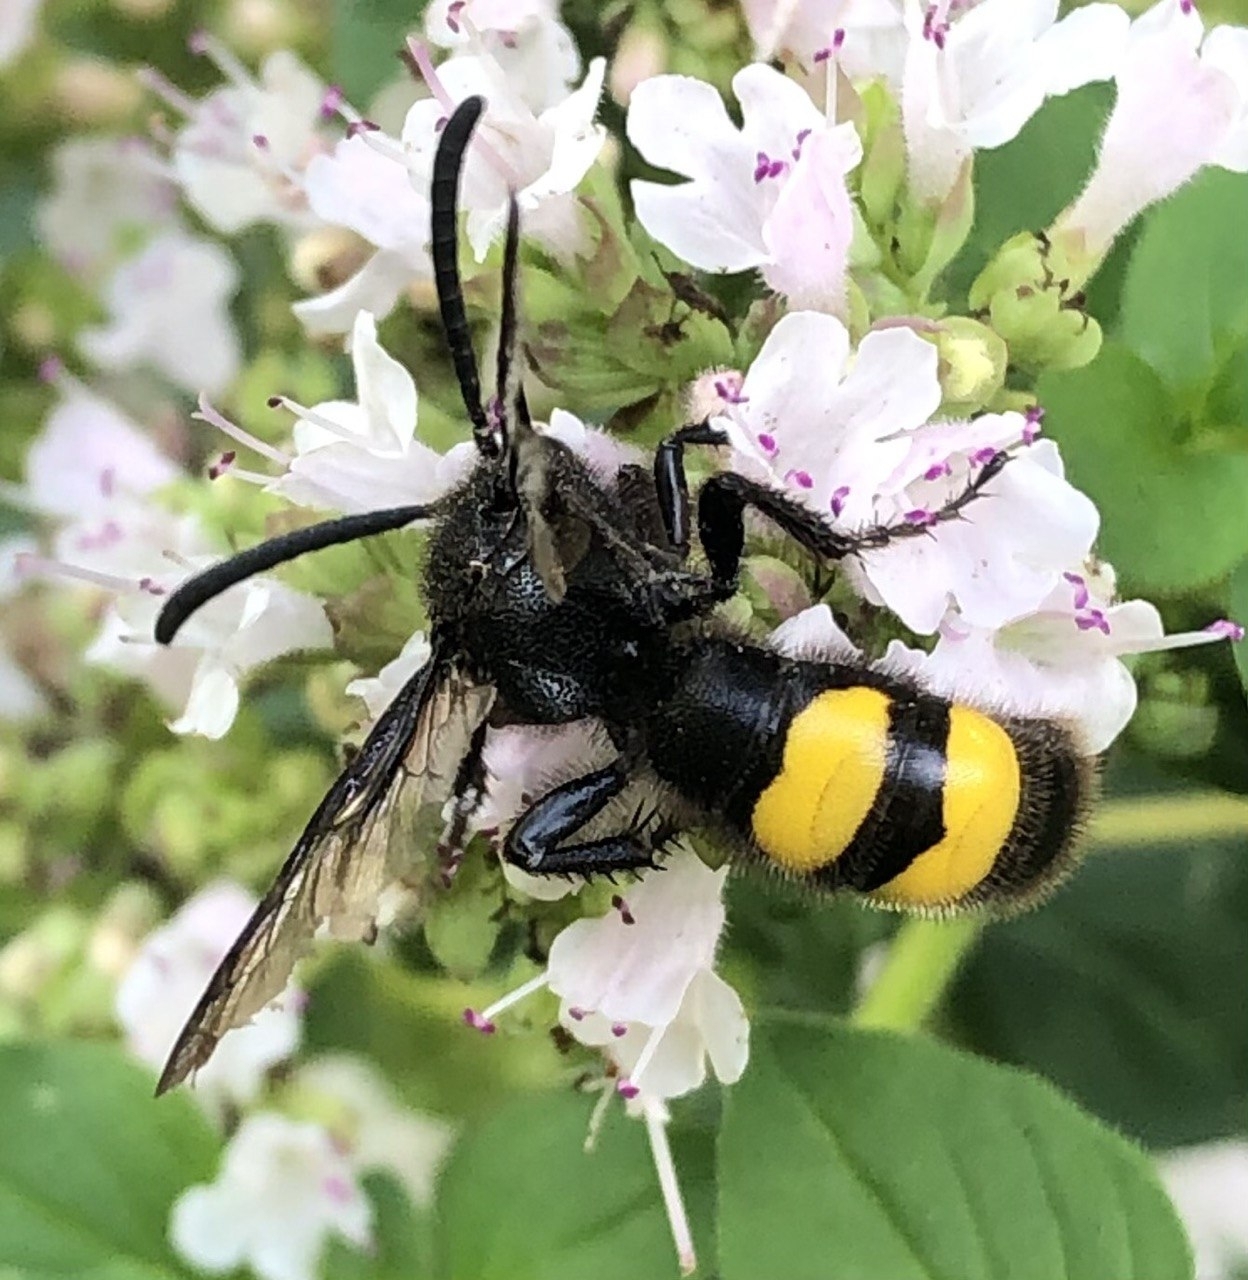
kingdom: Animalia
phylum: Arthropoda
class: Insecta
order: Hymenoptera
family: Scoliidae
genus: Scolia
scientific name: Scolia hirta
